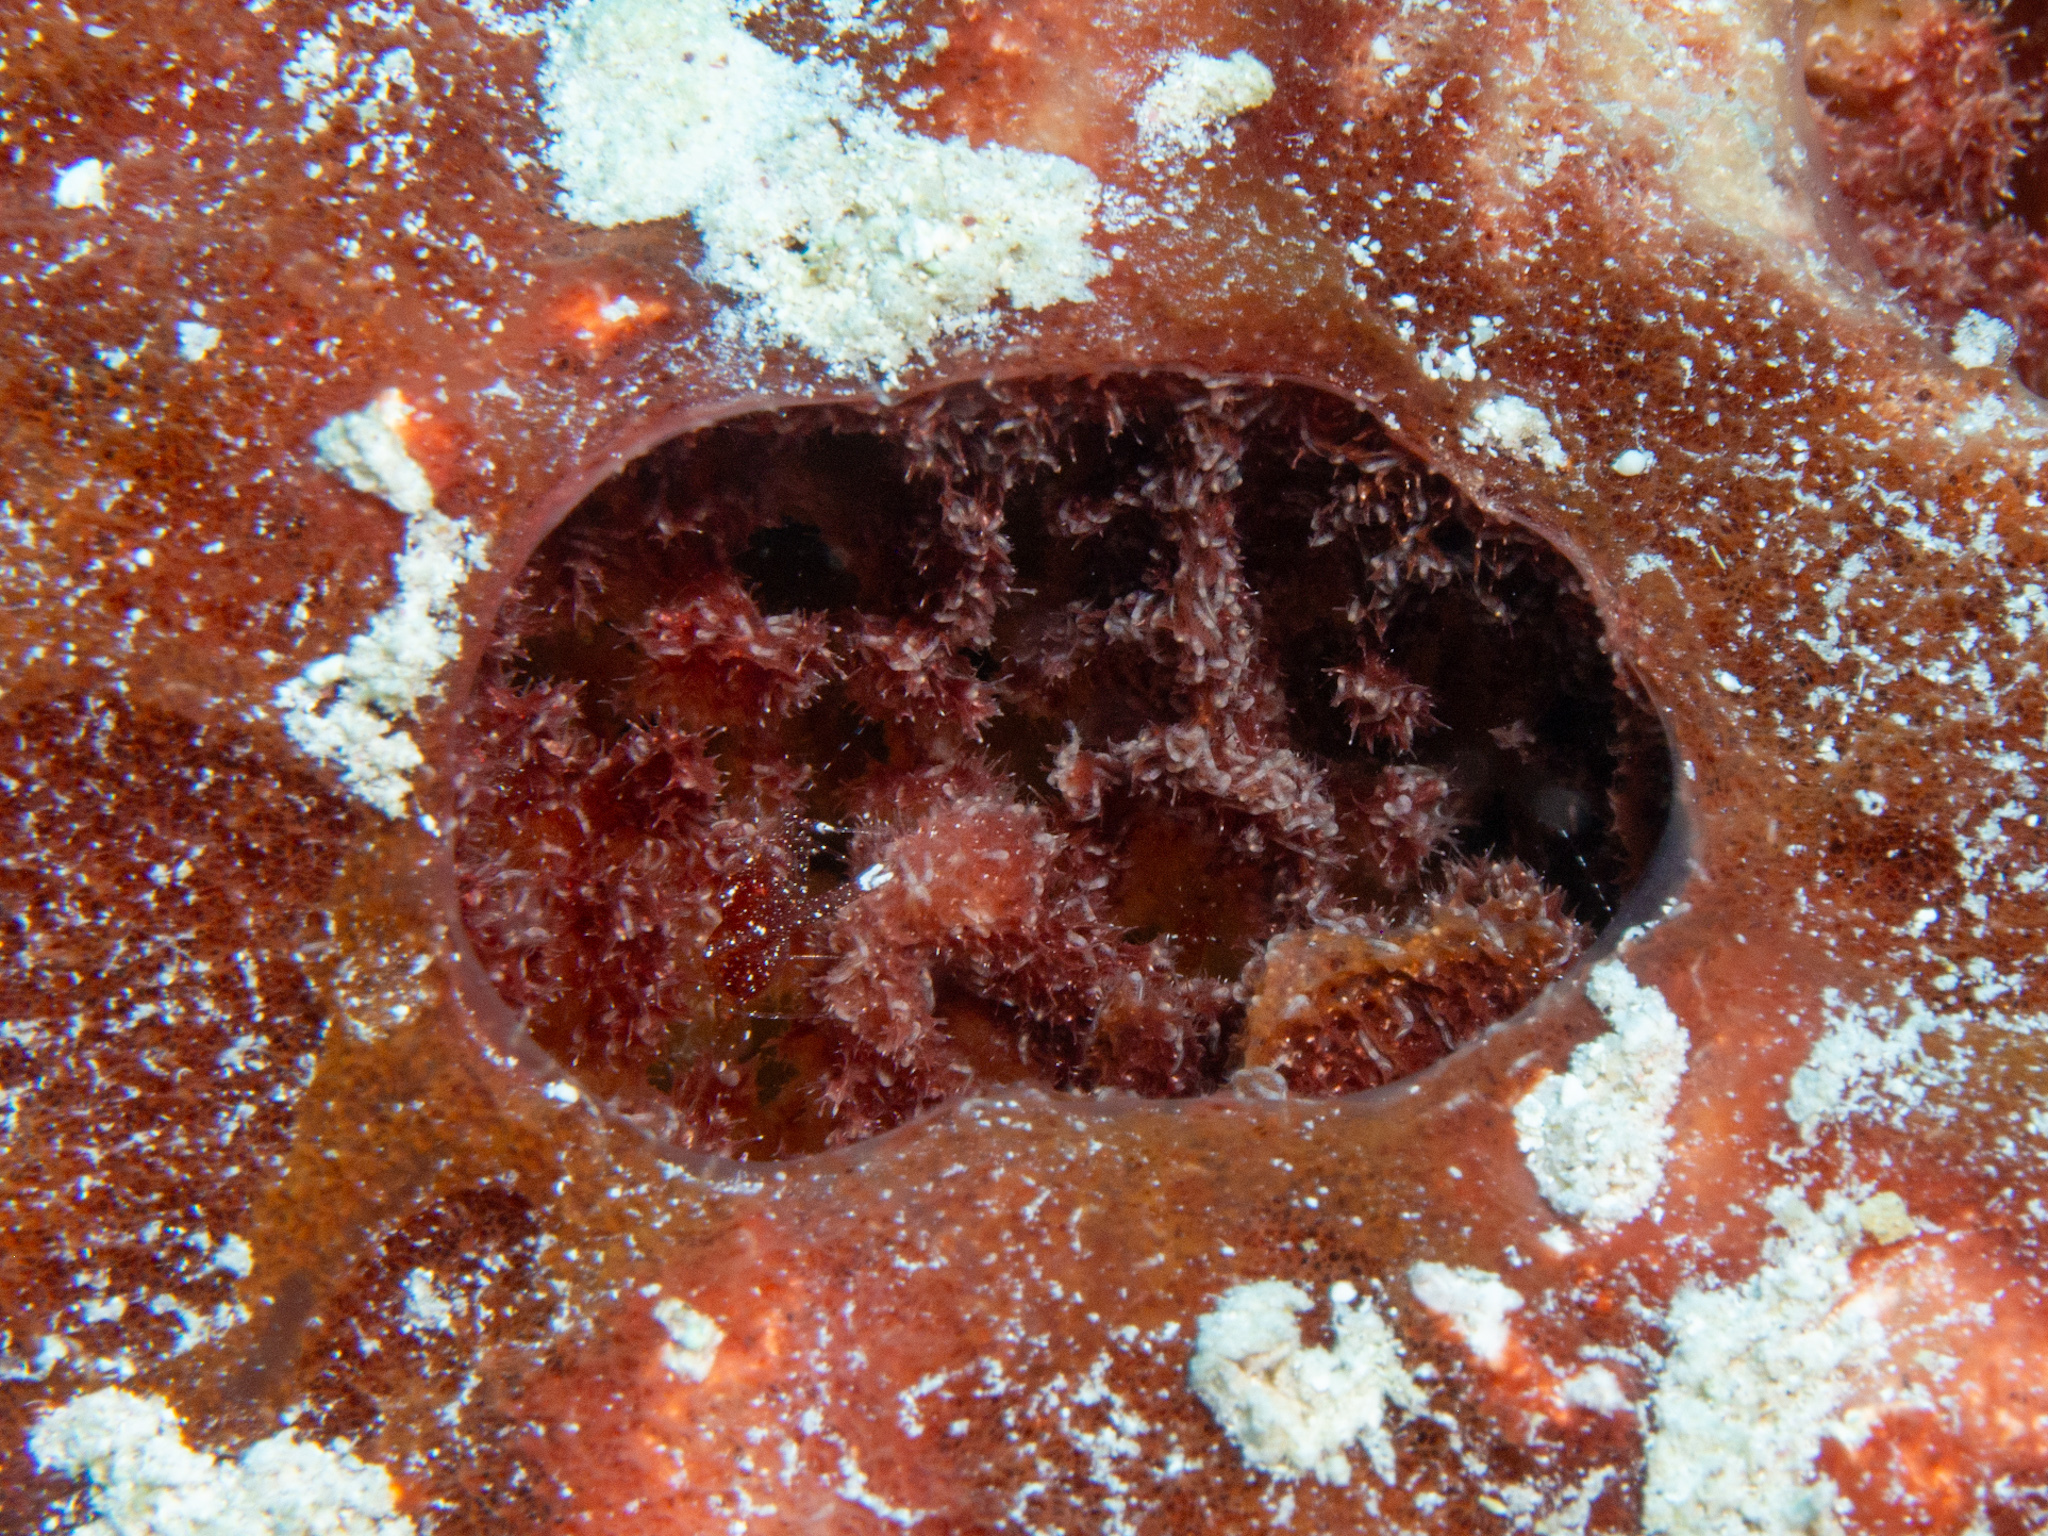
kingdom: Animalia
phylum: Porifera
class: Demospongiae
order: Biemnida
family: Biemnidae
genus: Neofibularia
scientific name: Neofibularia nolitangere
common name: Do-not-touch-me sponge
